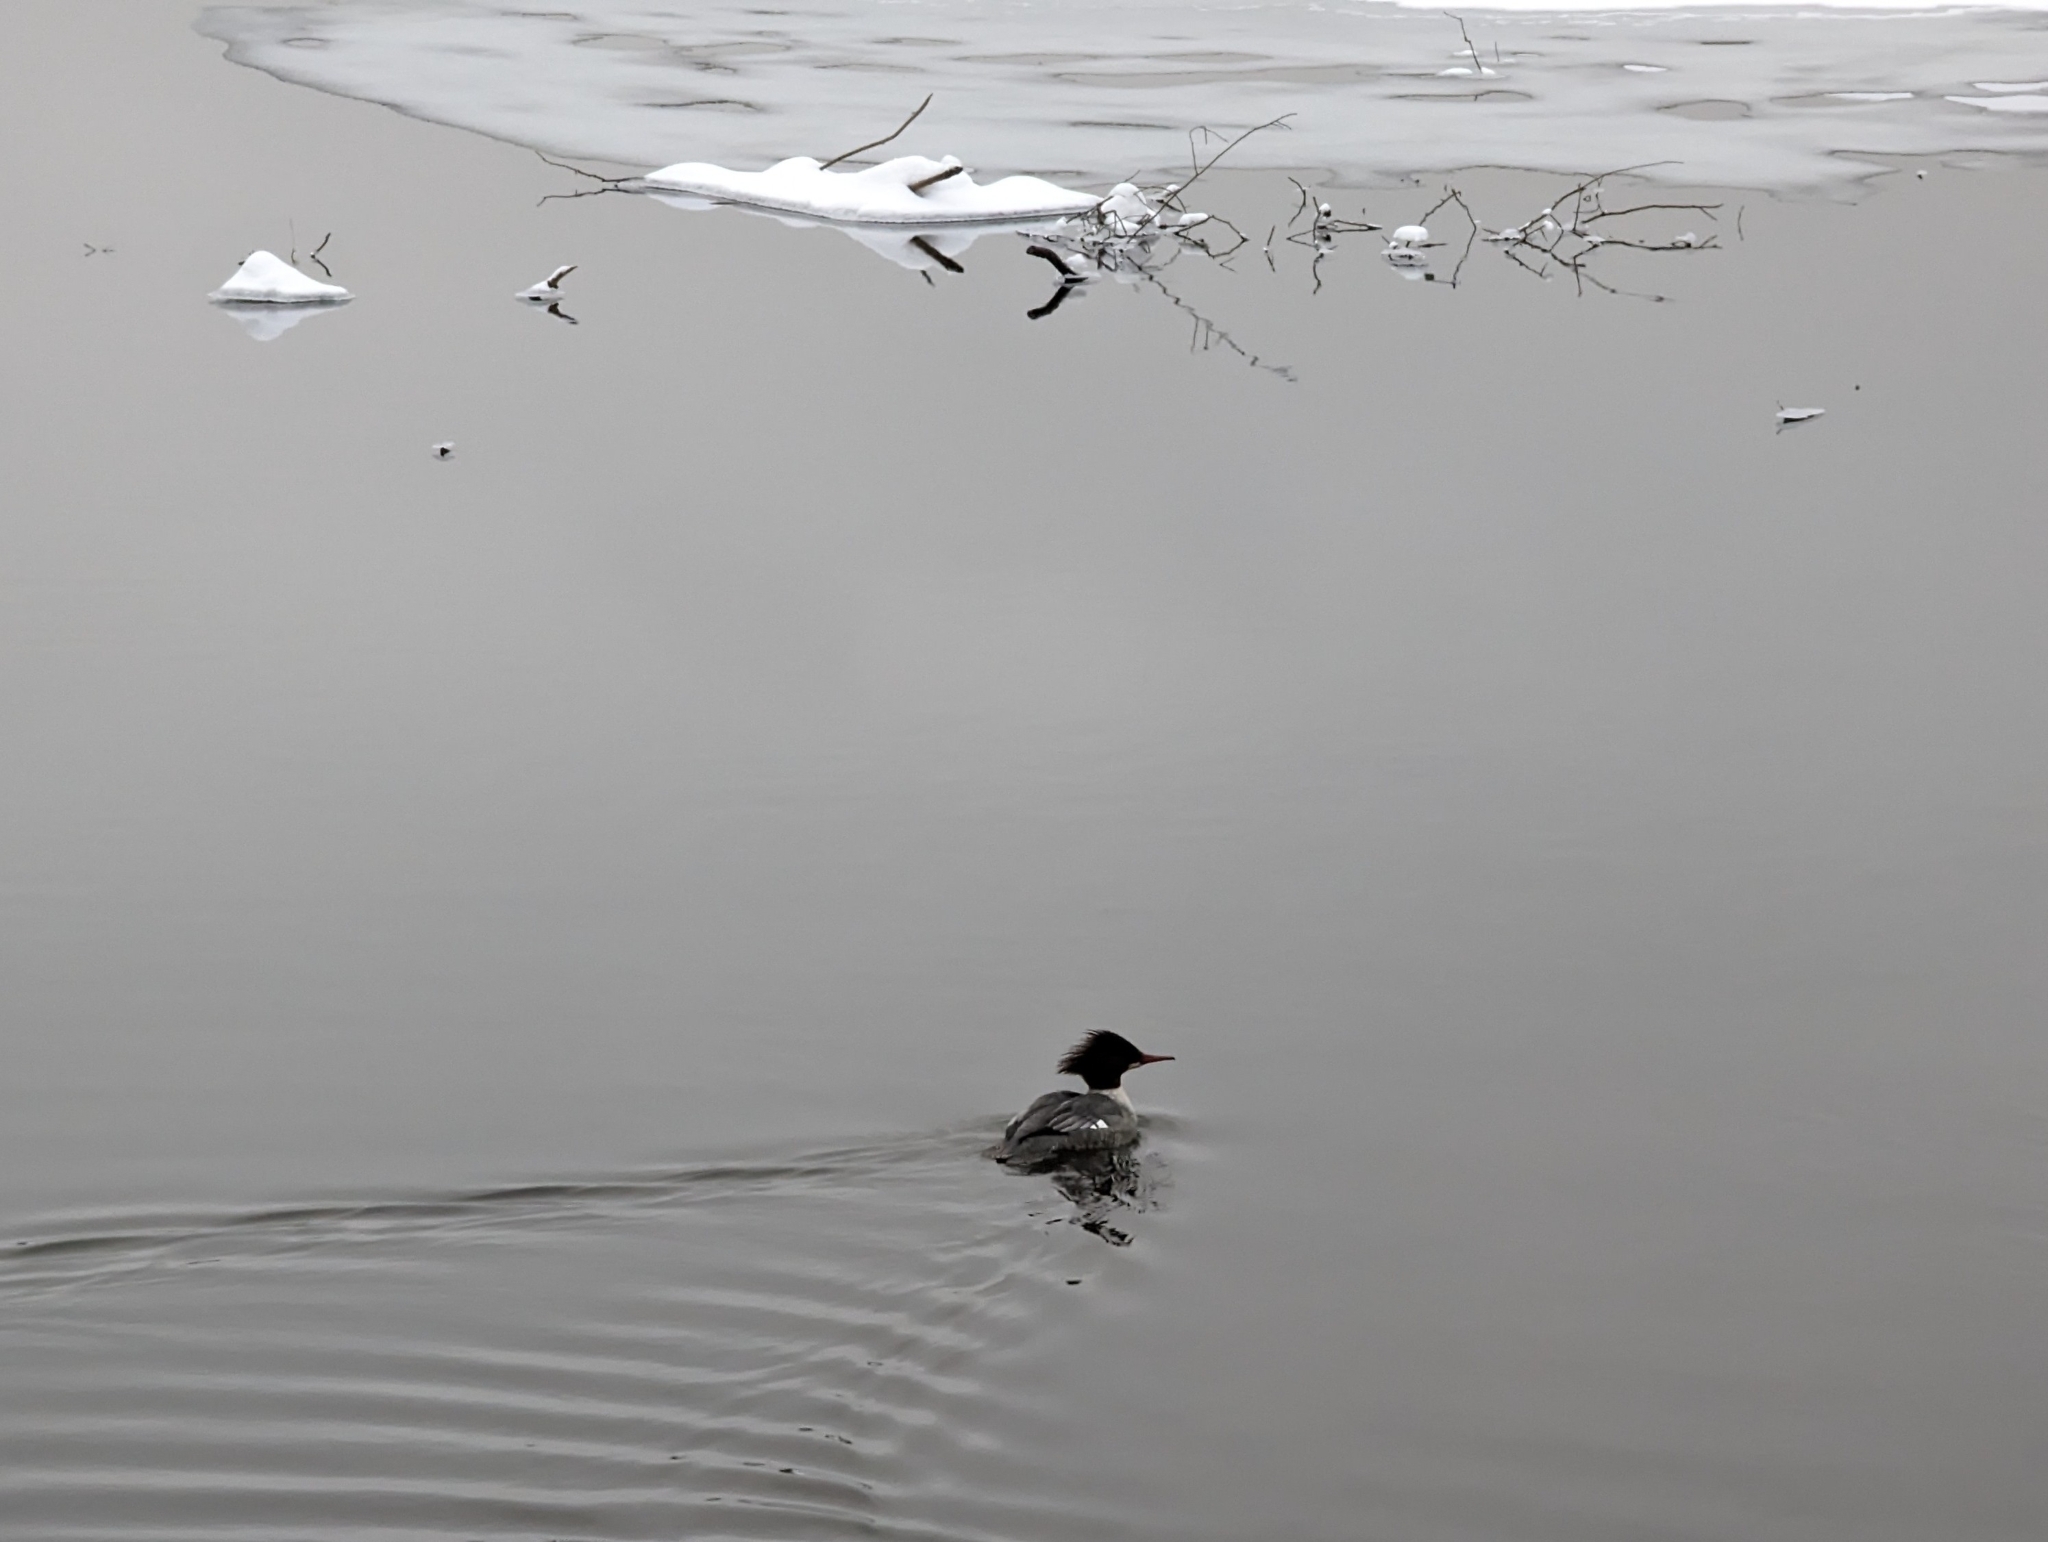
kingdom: Animalia
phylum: Chordata
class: Aves
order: Anseriformes
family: Anatidae
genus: Mergus
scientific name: Mergus merganser
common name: Common merganser
